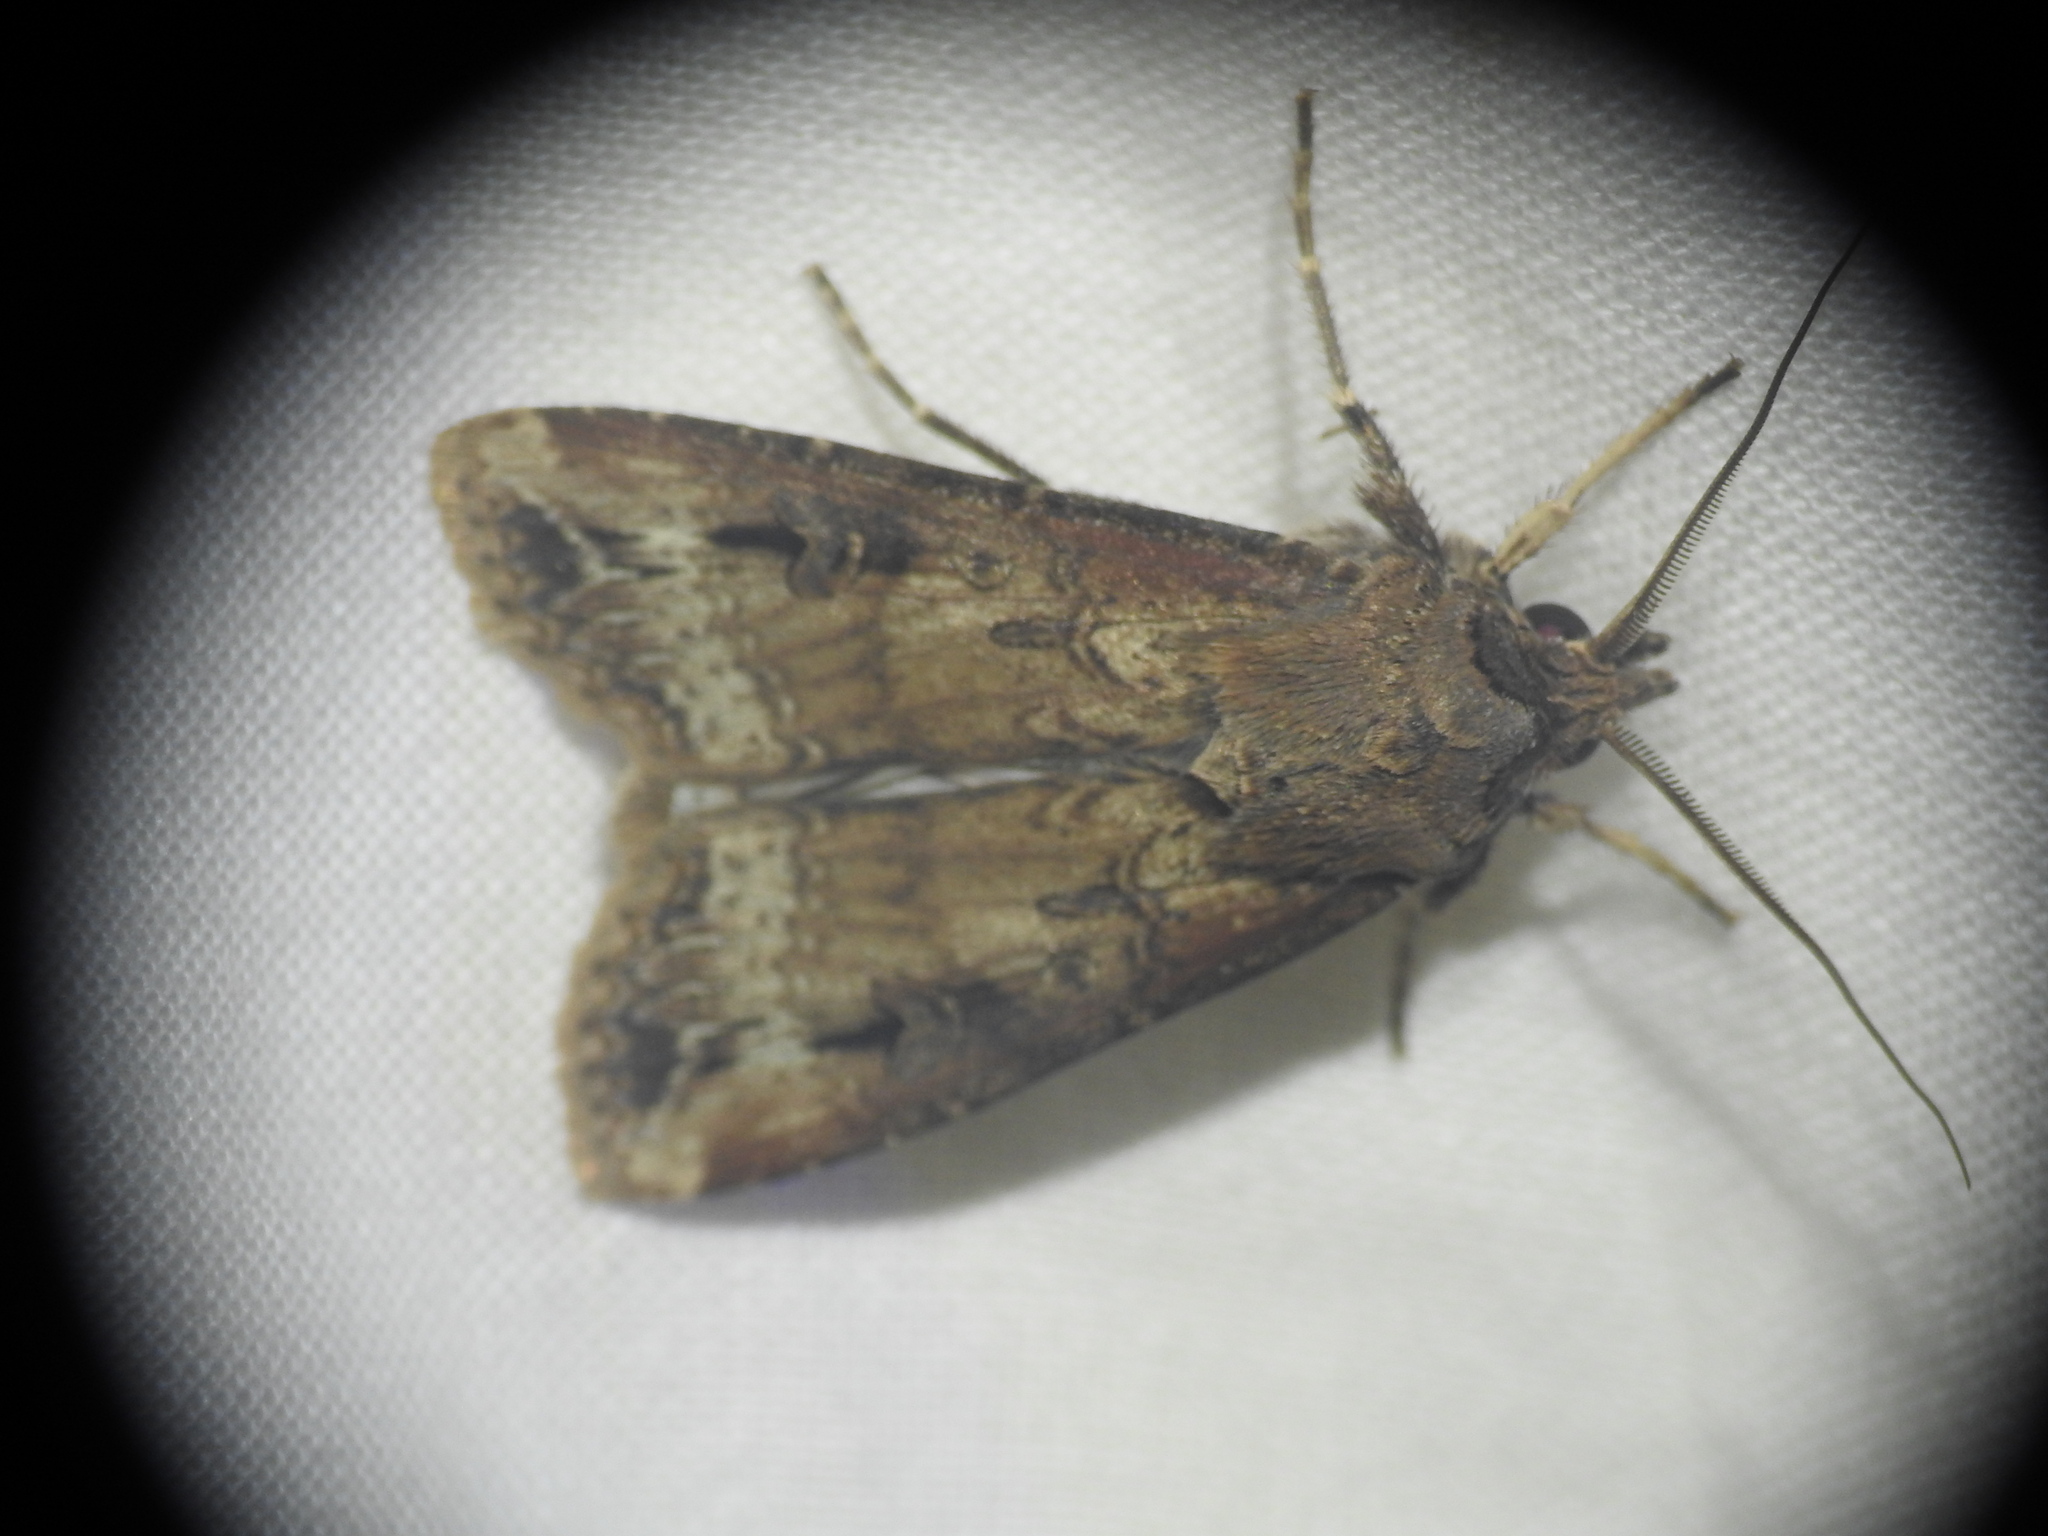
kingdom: Animalia
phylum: Arthropoda
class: Insecta
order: Lepidoptera
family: Noctuidae
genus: Agrotis
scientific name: Agrotis ipsilon
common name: Dark sword-grass
